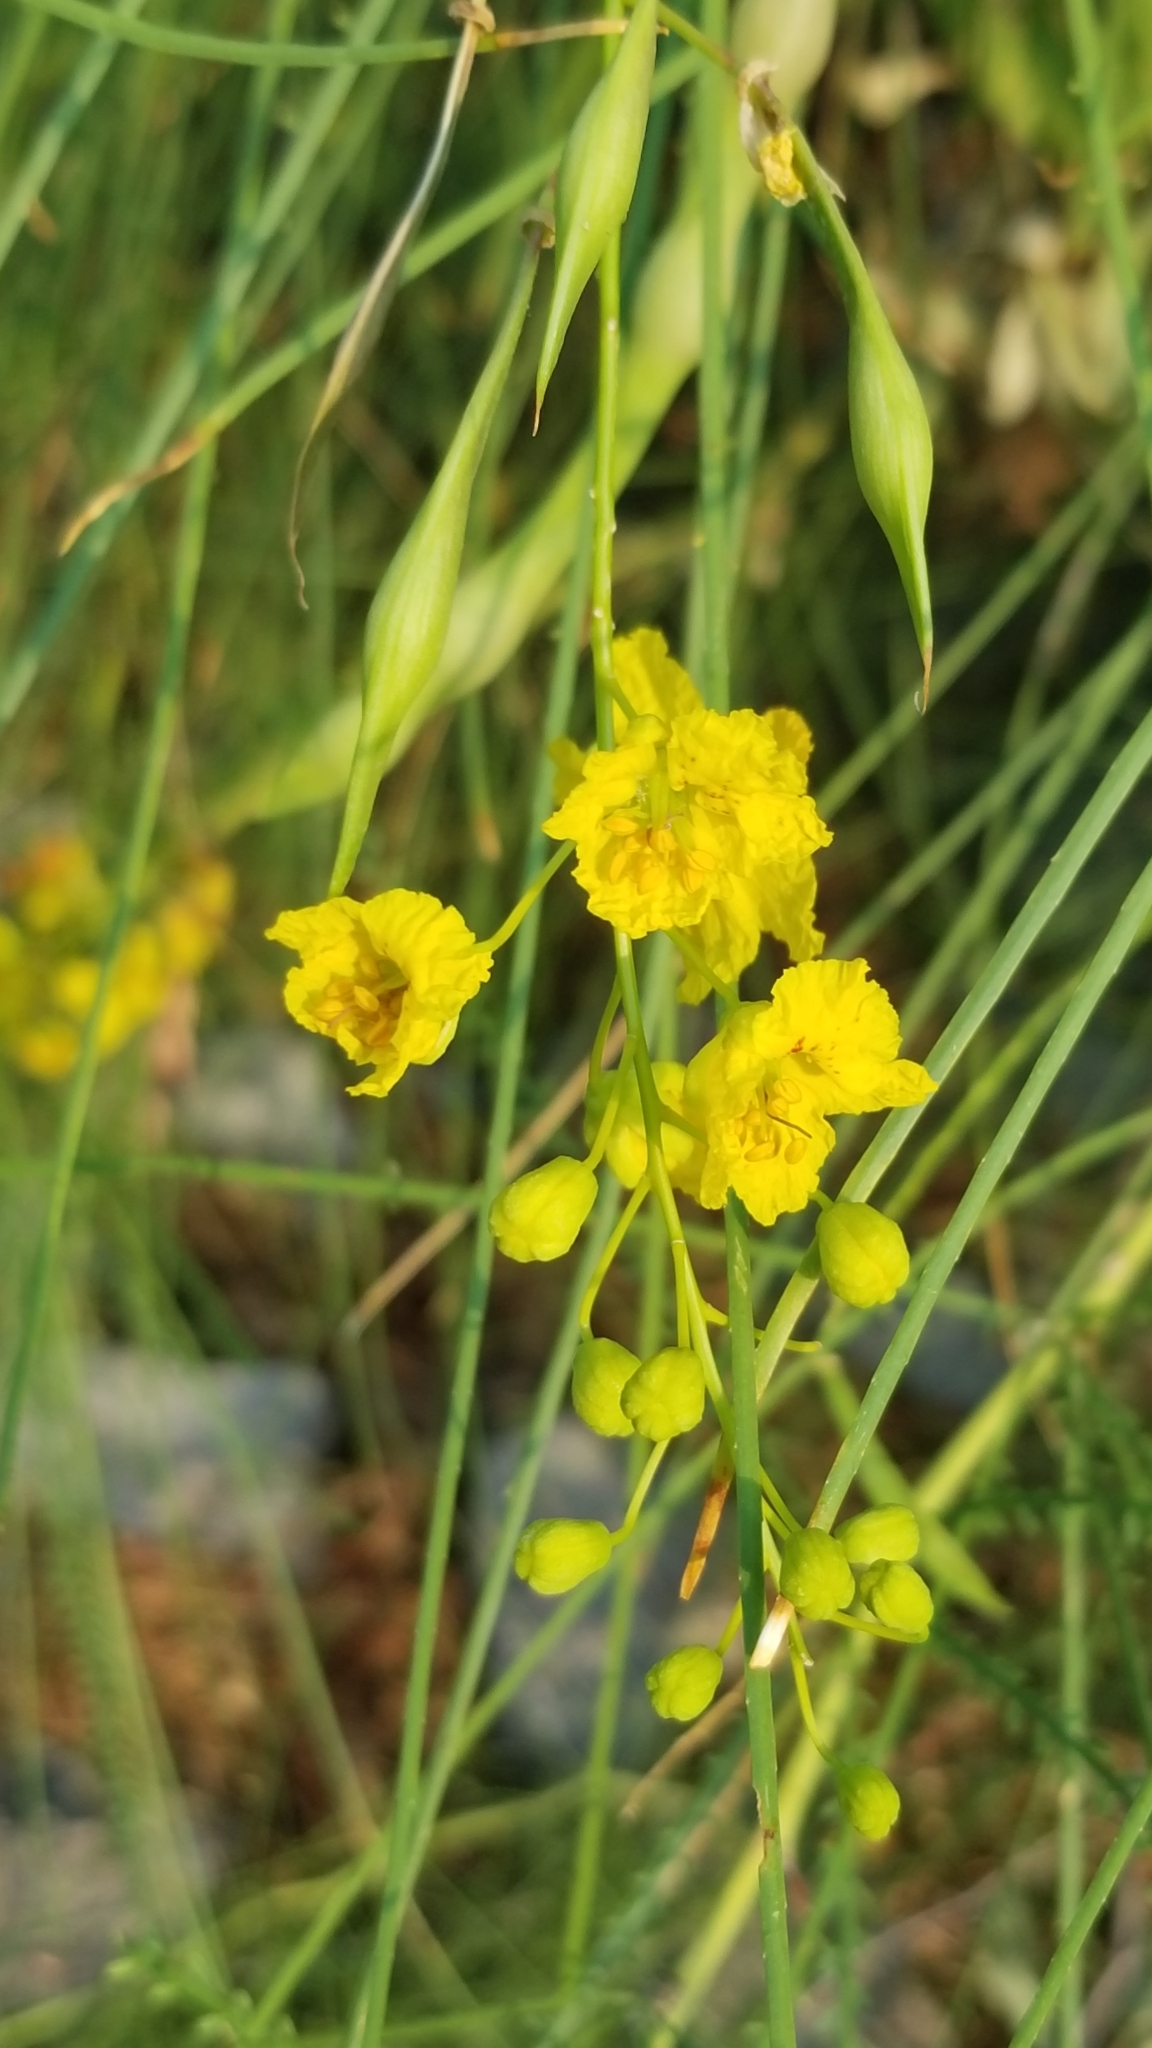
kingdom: Plantae
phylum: Tracheophyta
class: Magnoliopsida
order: Fabales
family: Fabaceae
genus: Parkinsonia
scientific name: Parkinsonia aculeata
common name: Jerusalem thorn
